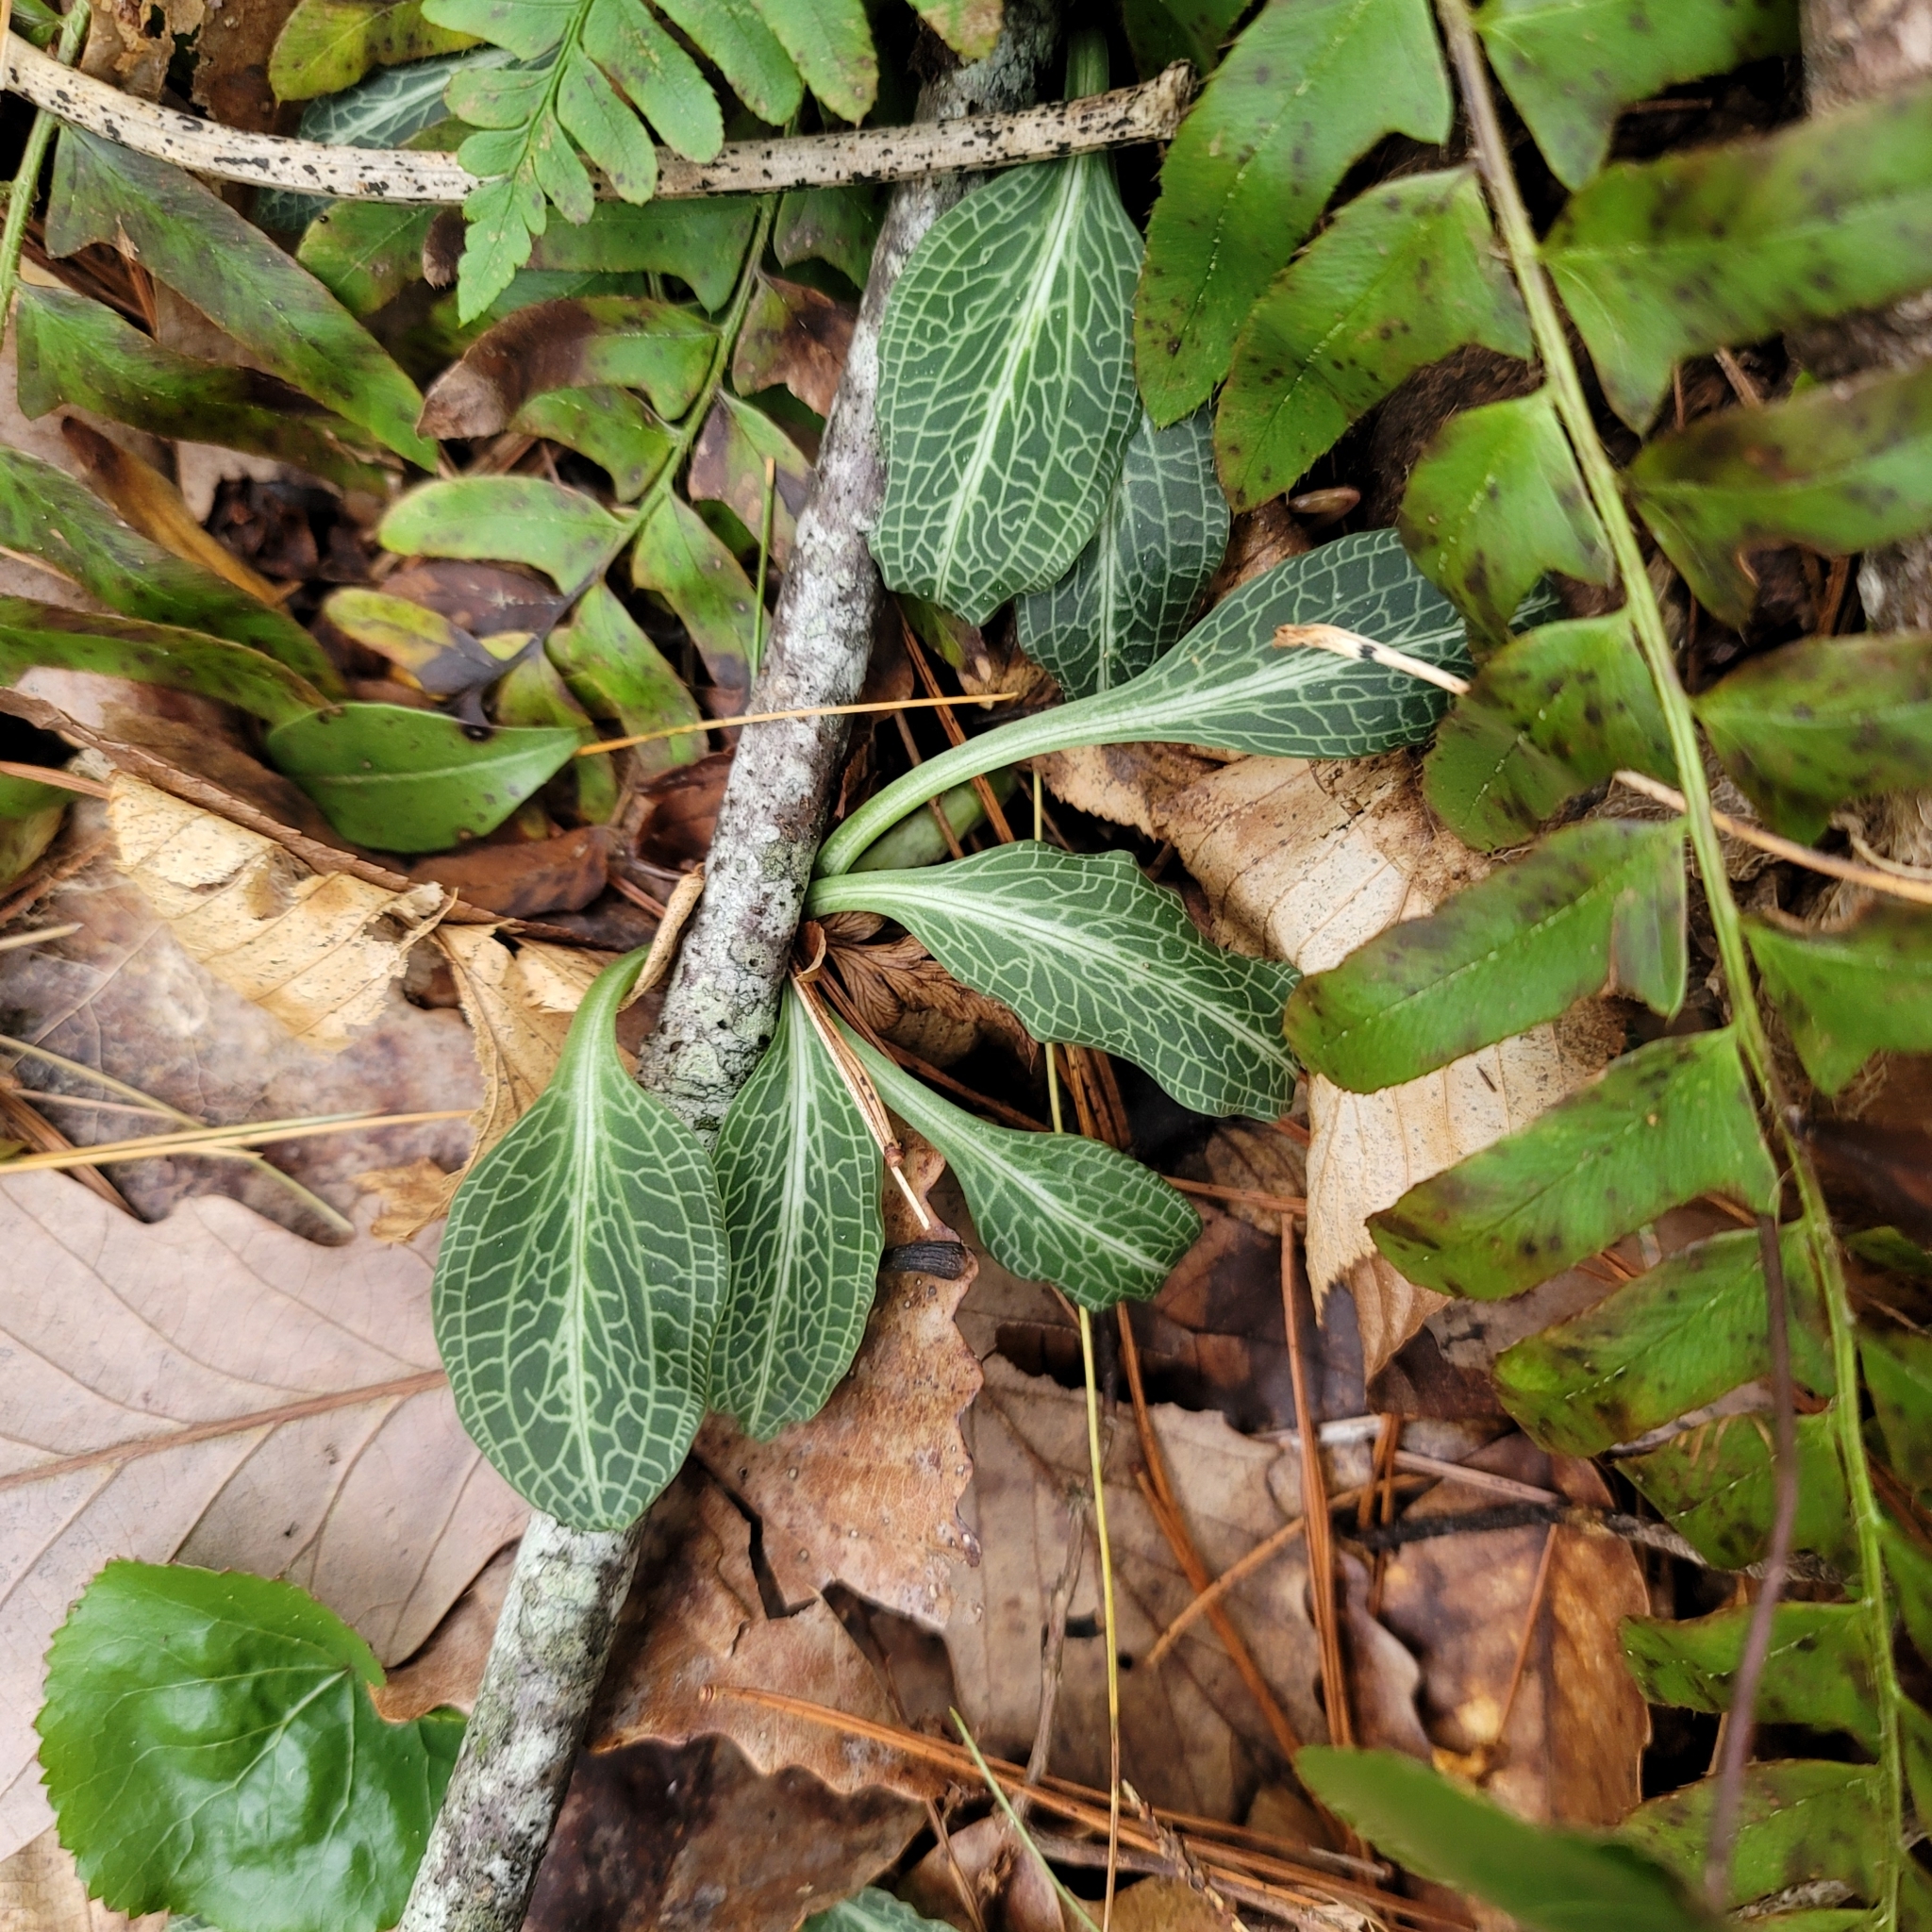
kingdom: Plantae
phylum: Tracheophyta
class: Liliopsida
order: Asparagales
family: Orchidaceae
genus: Goodyera
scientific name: Goodyera pubescens
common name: Downy rattlesnake-plantain
